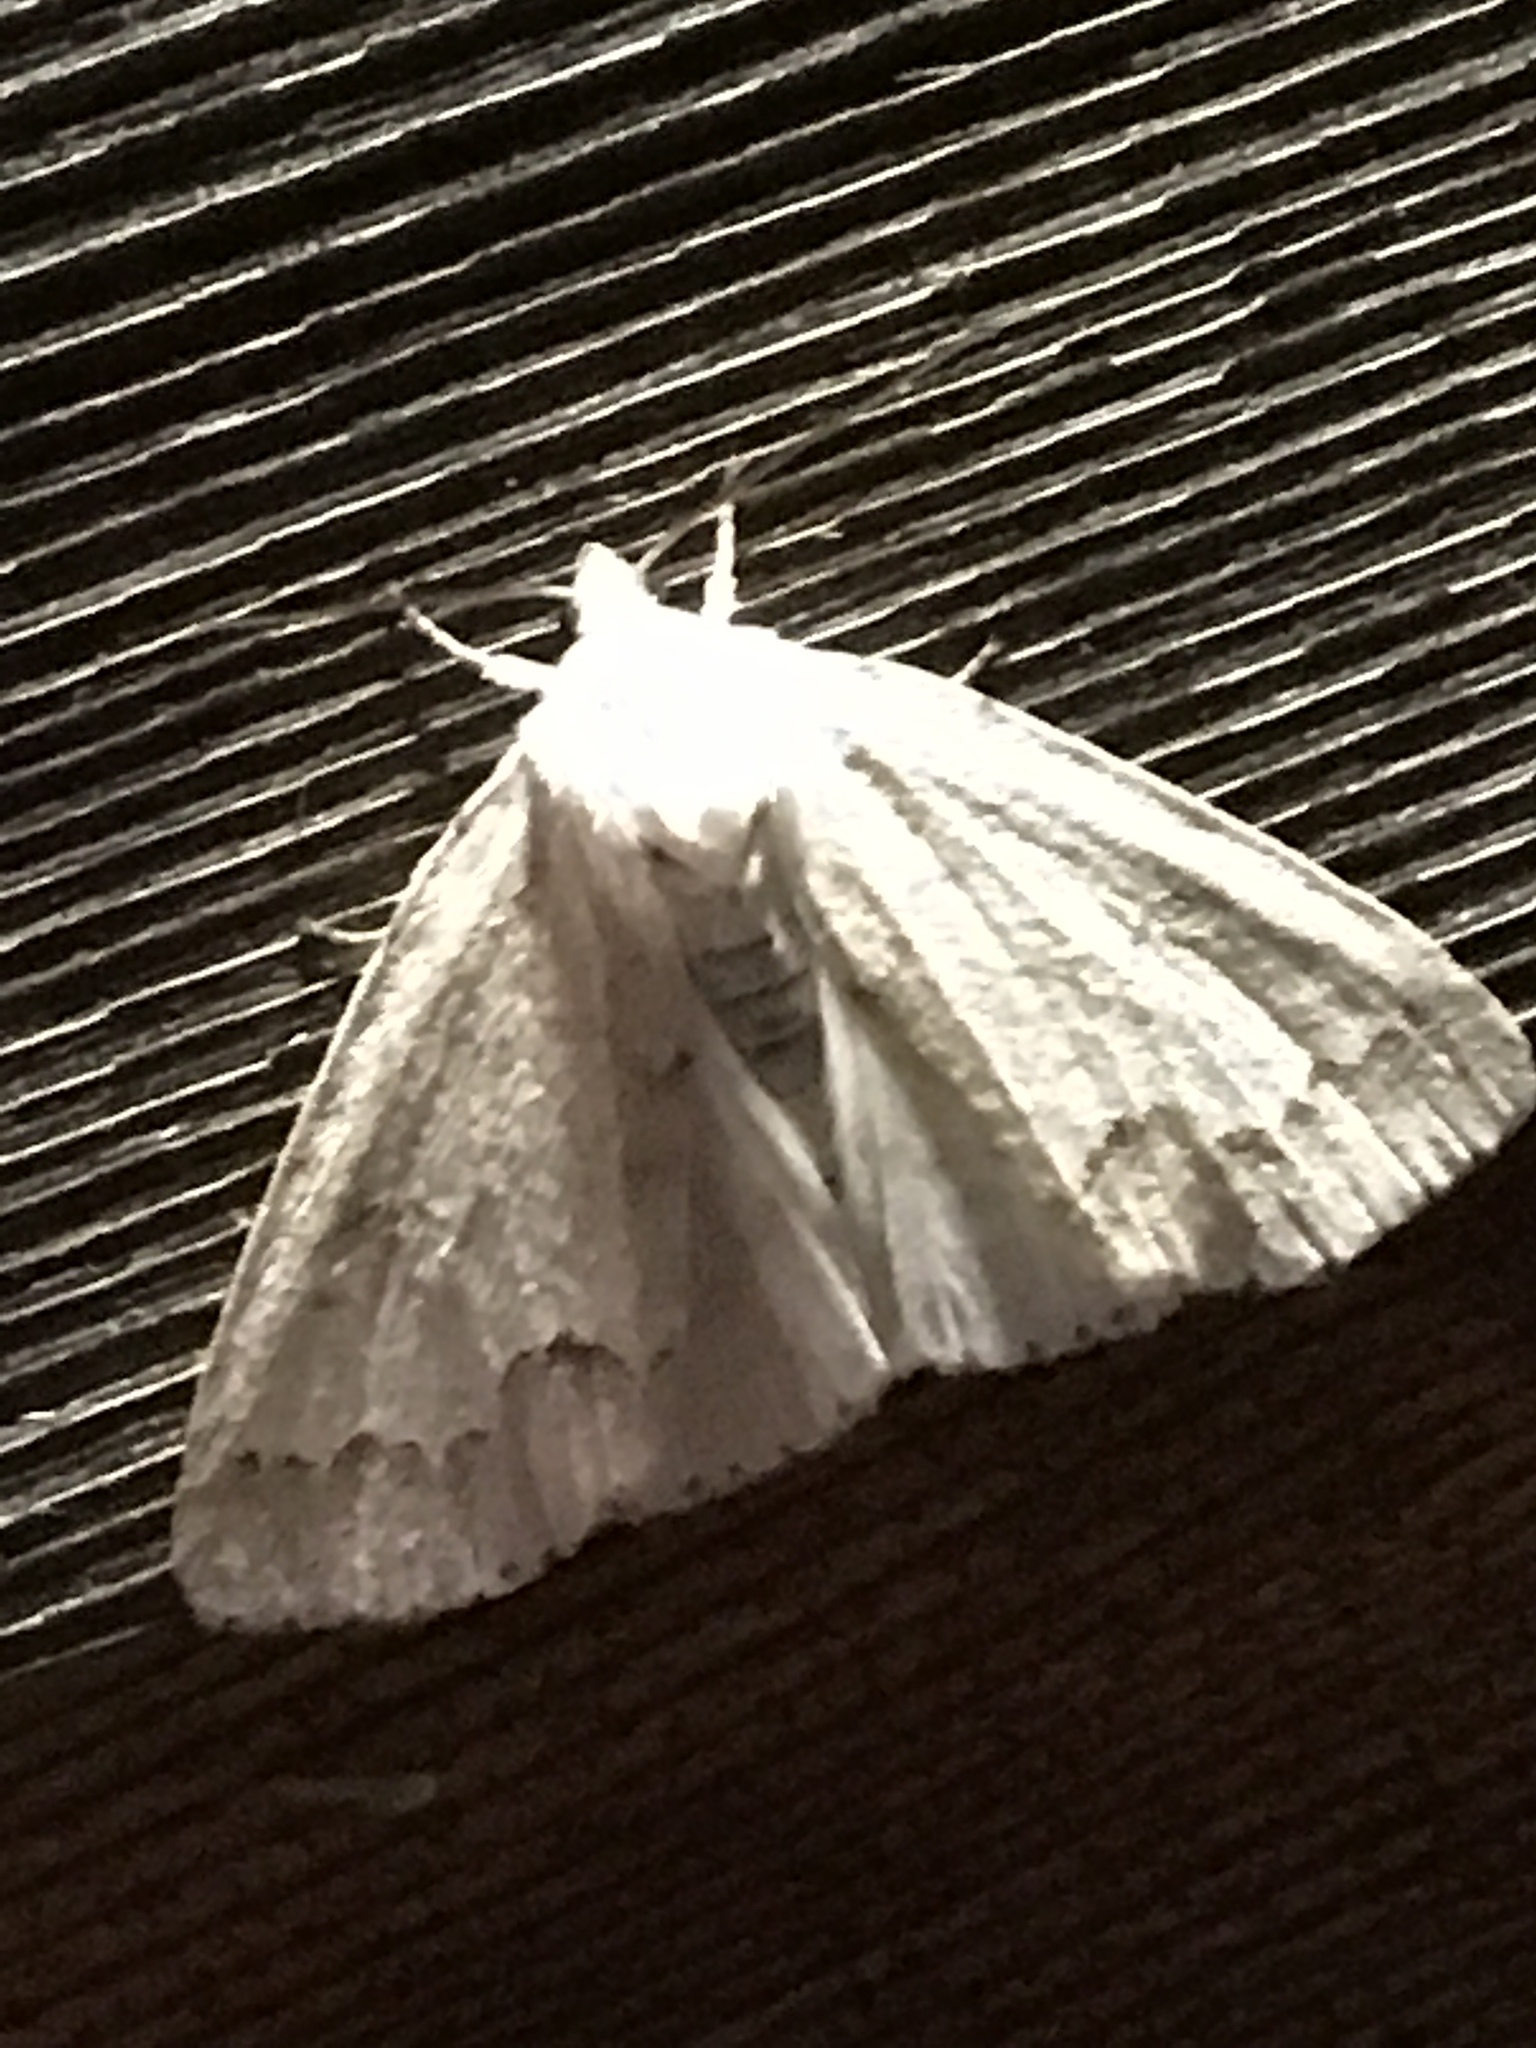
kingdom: Animalia
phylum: Arthropoda
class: Insecta
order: Lepidoptera
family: Noctuidae
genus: Acronicta
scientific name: Acronicta innotata
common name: Unmarked dagger
